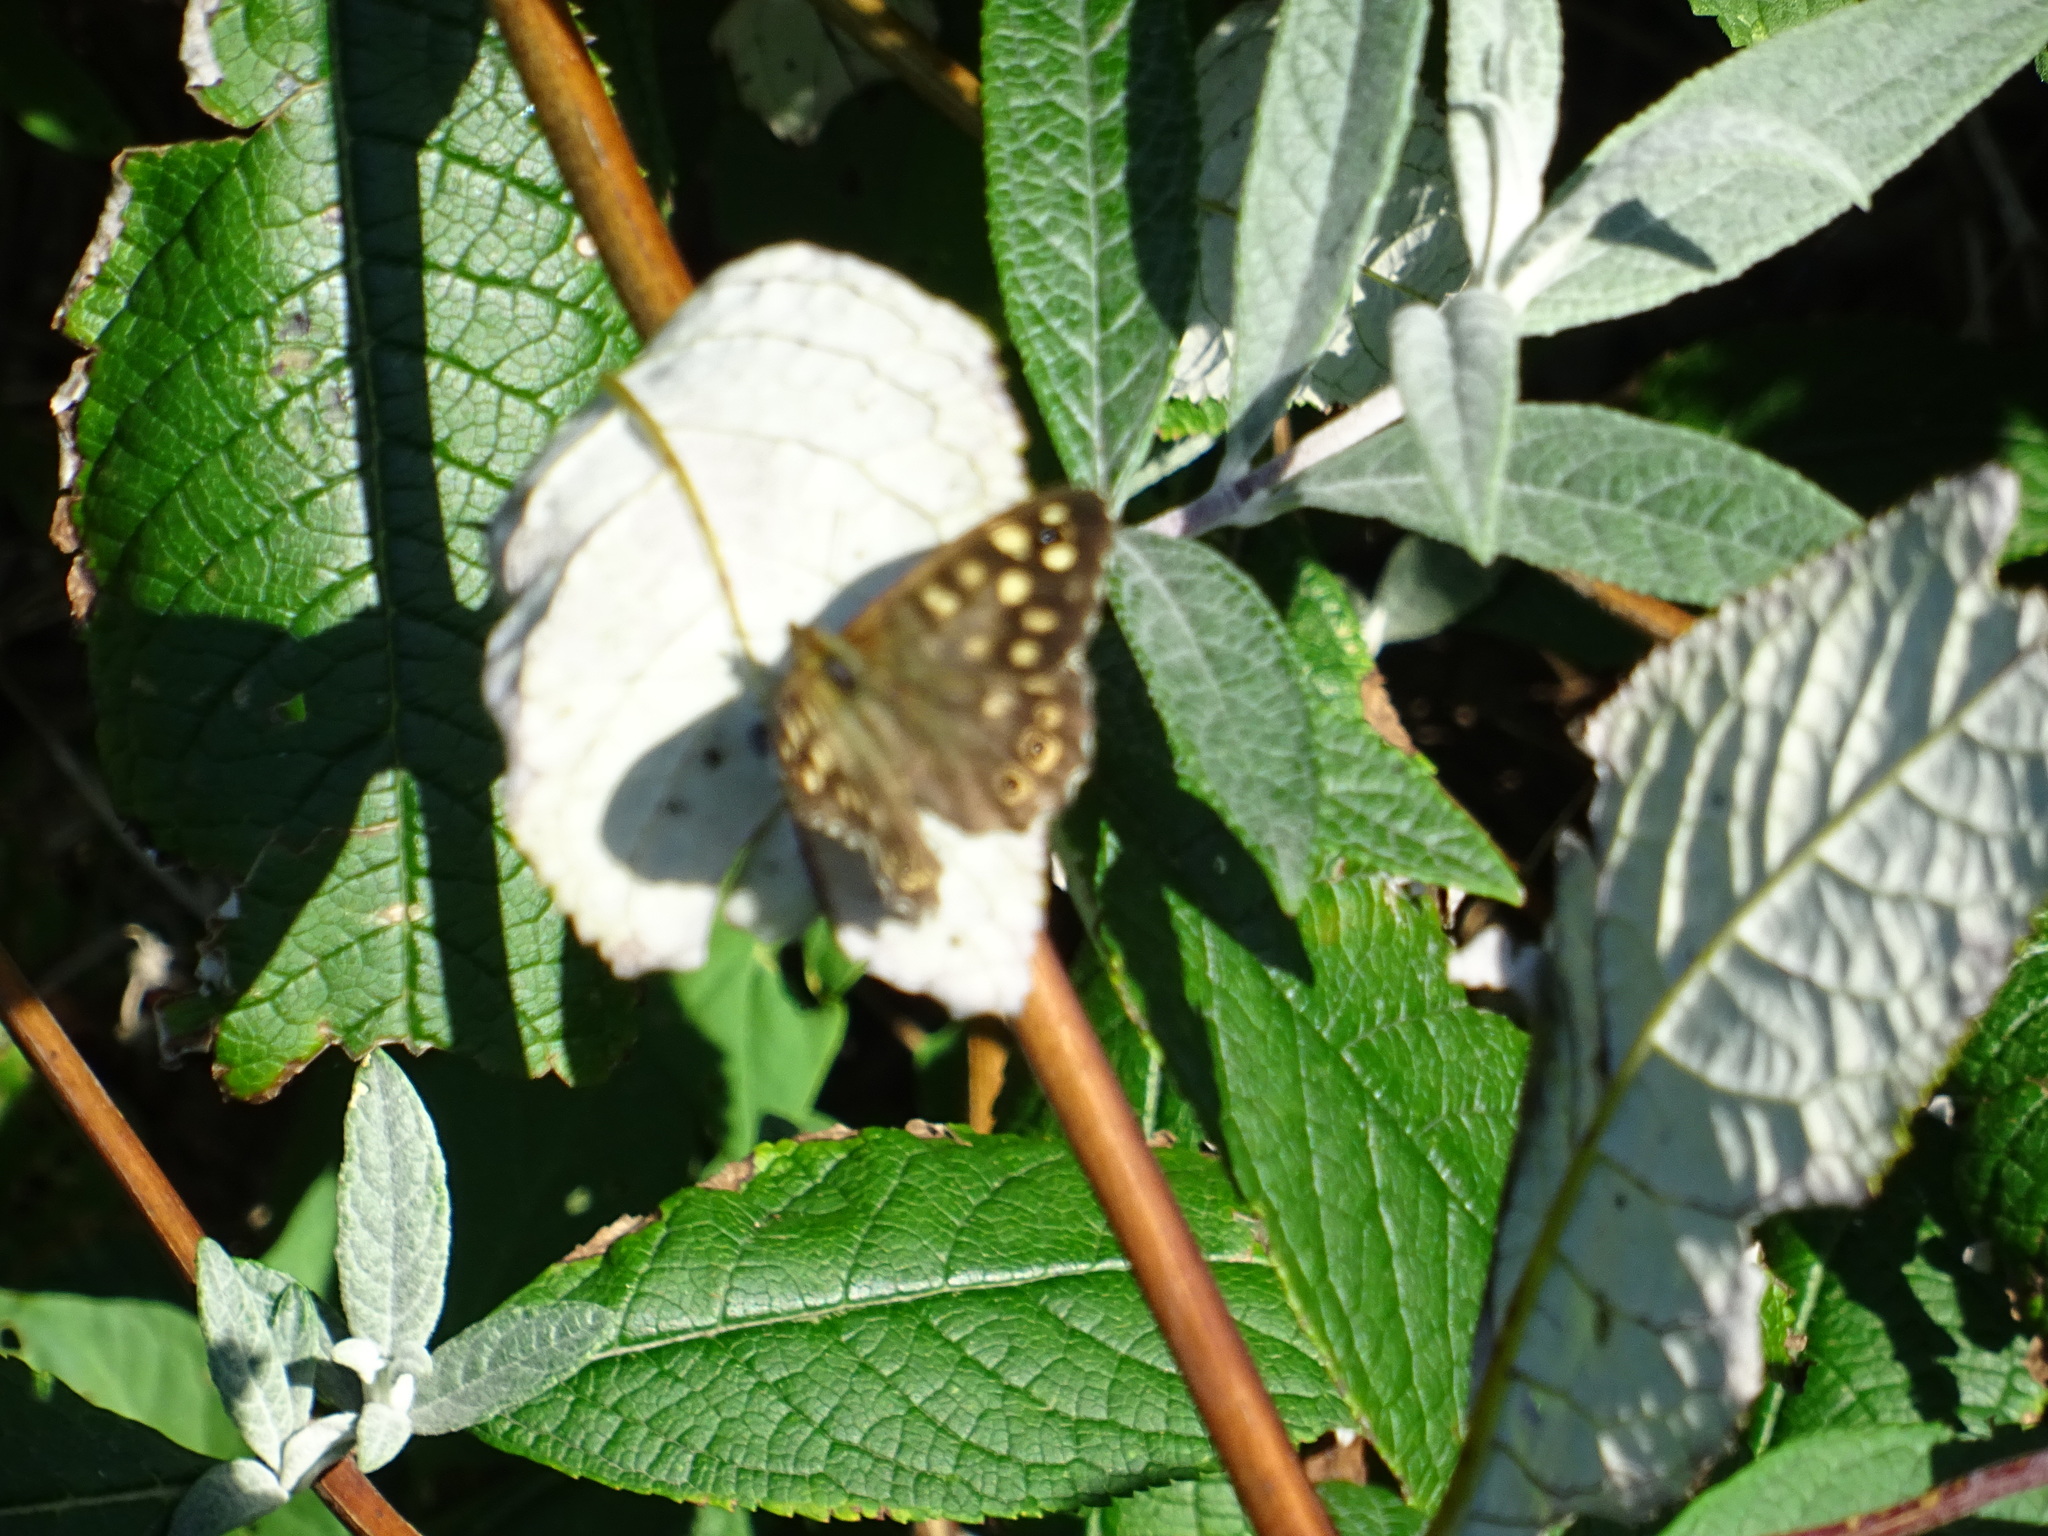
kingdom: Animalia
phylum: Arthropoda
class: Insecta
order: Lepidoptera
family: Nymphalidae
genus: Pararge
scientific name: Pararge aegeria
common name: Speckled wood
